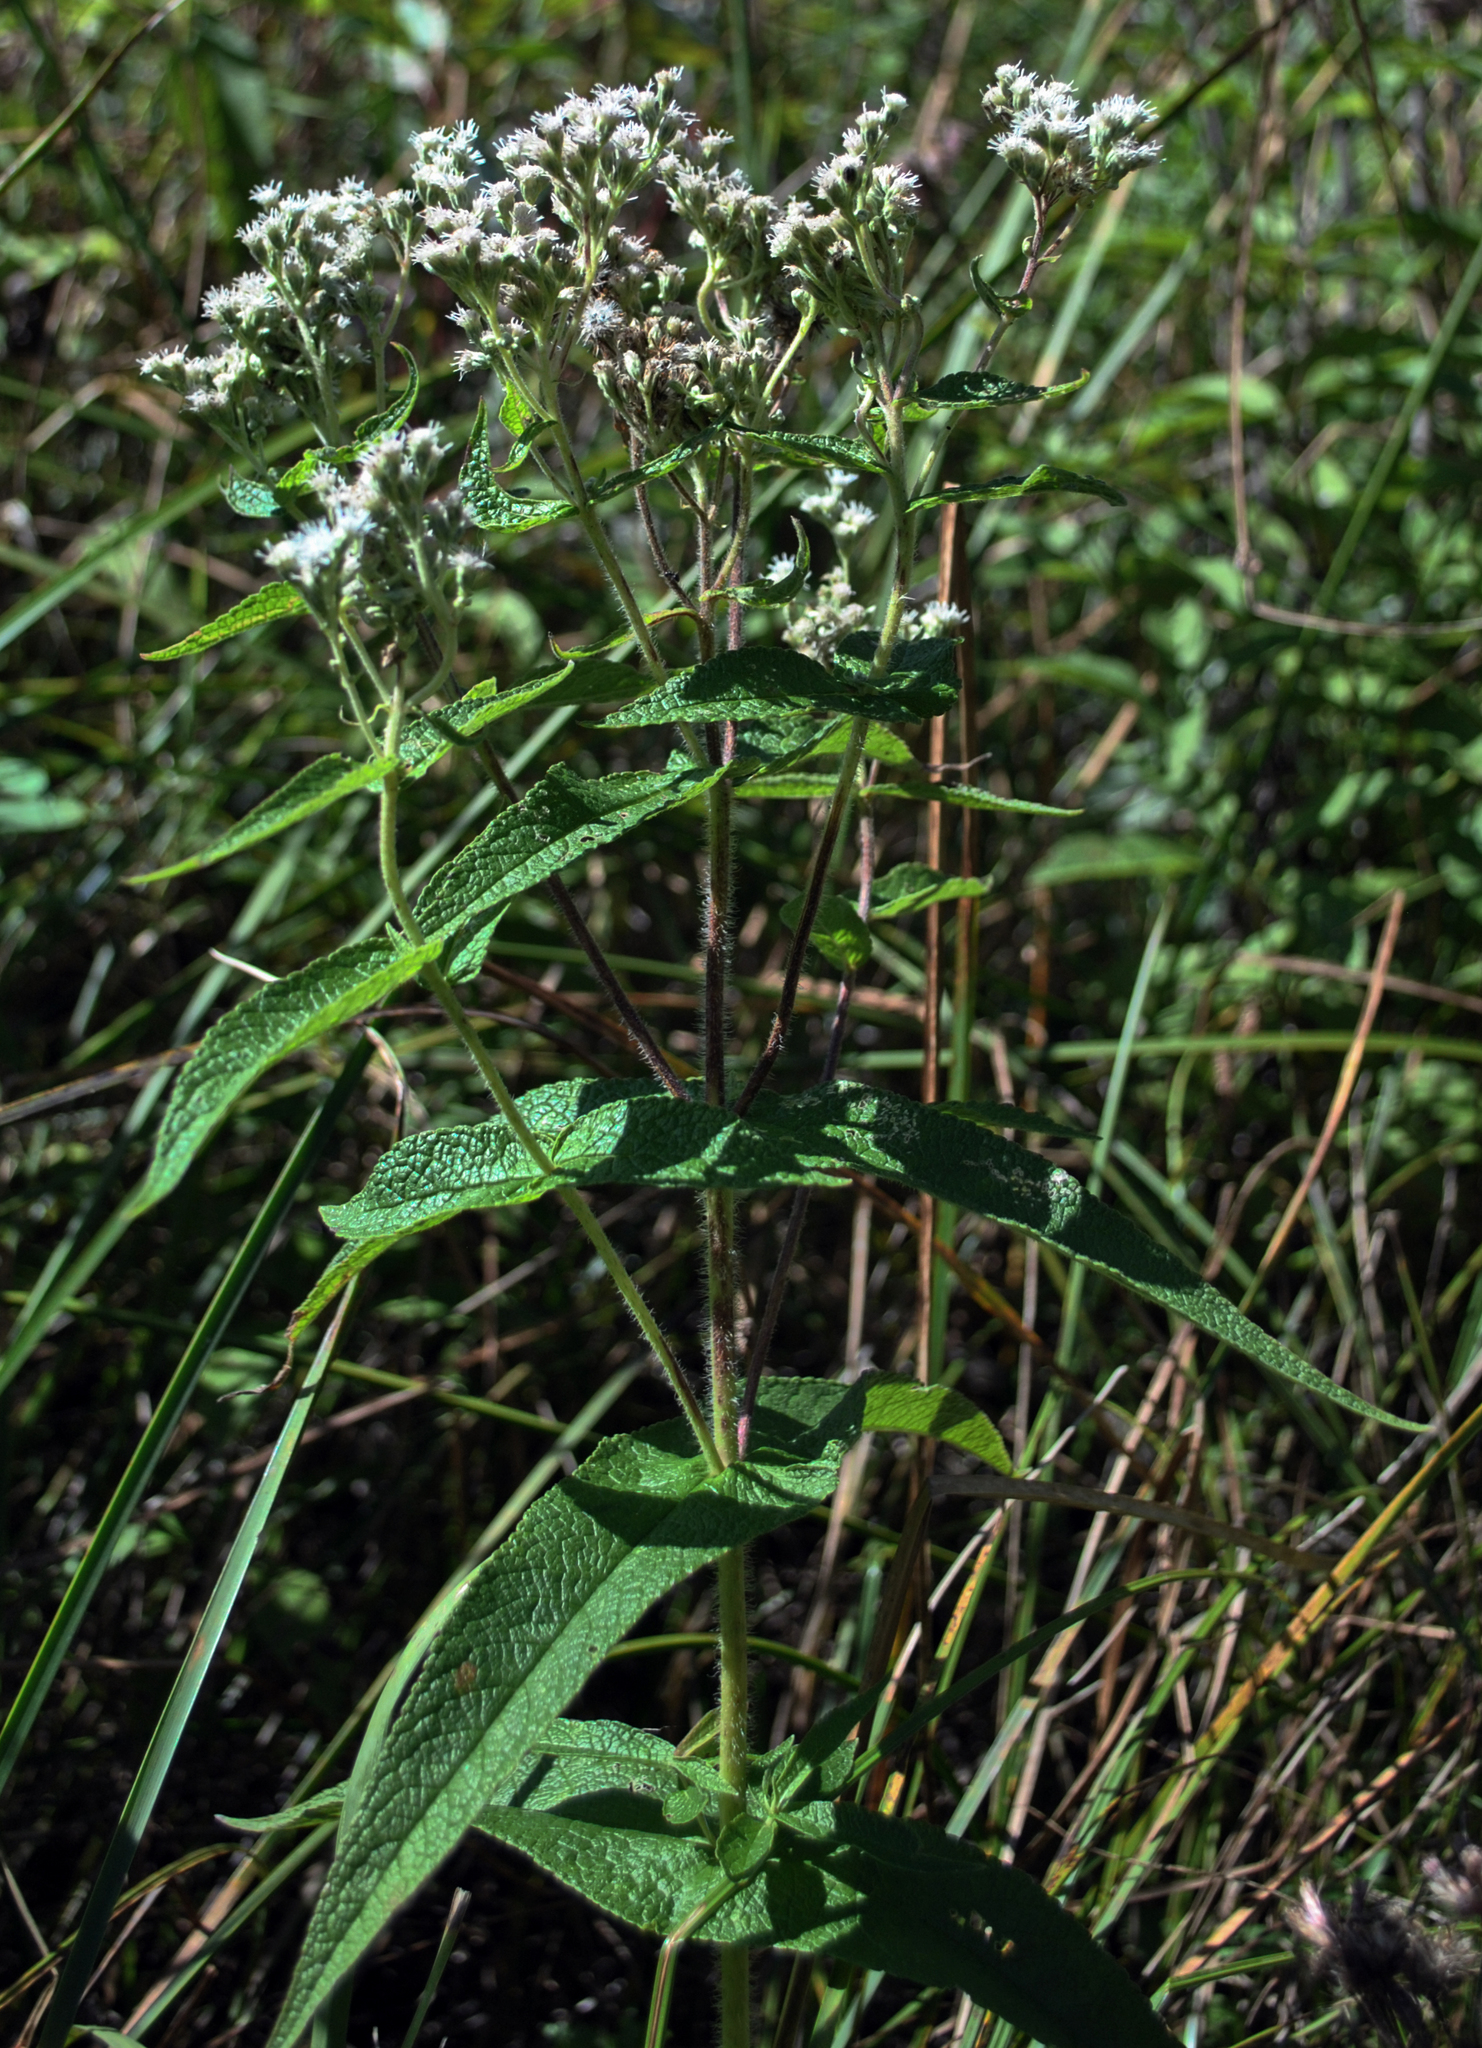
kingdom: Plantae
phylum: Tracheophyta
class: Magnoliopsida
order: Asterales
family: Asteraceae
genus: Eupatorium
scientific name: Eupatorium perfoliatum
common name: Boneset
